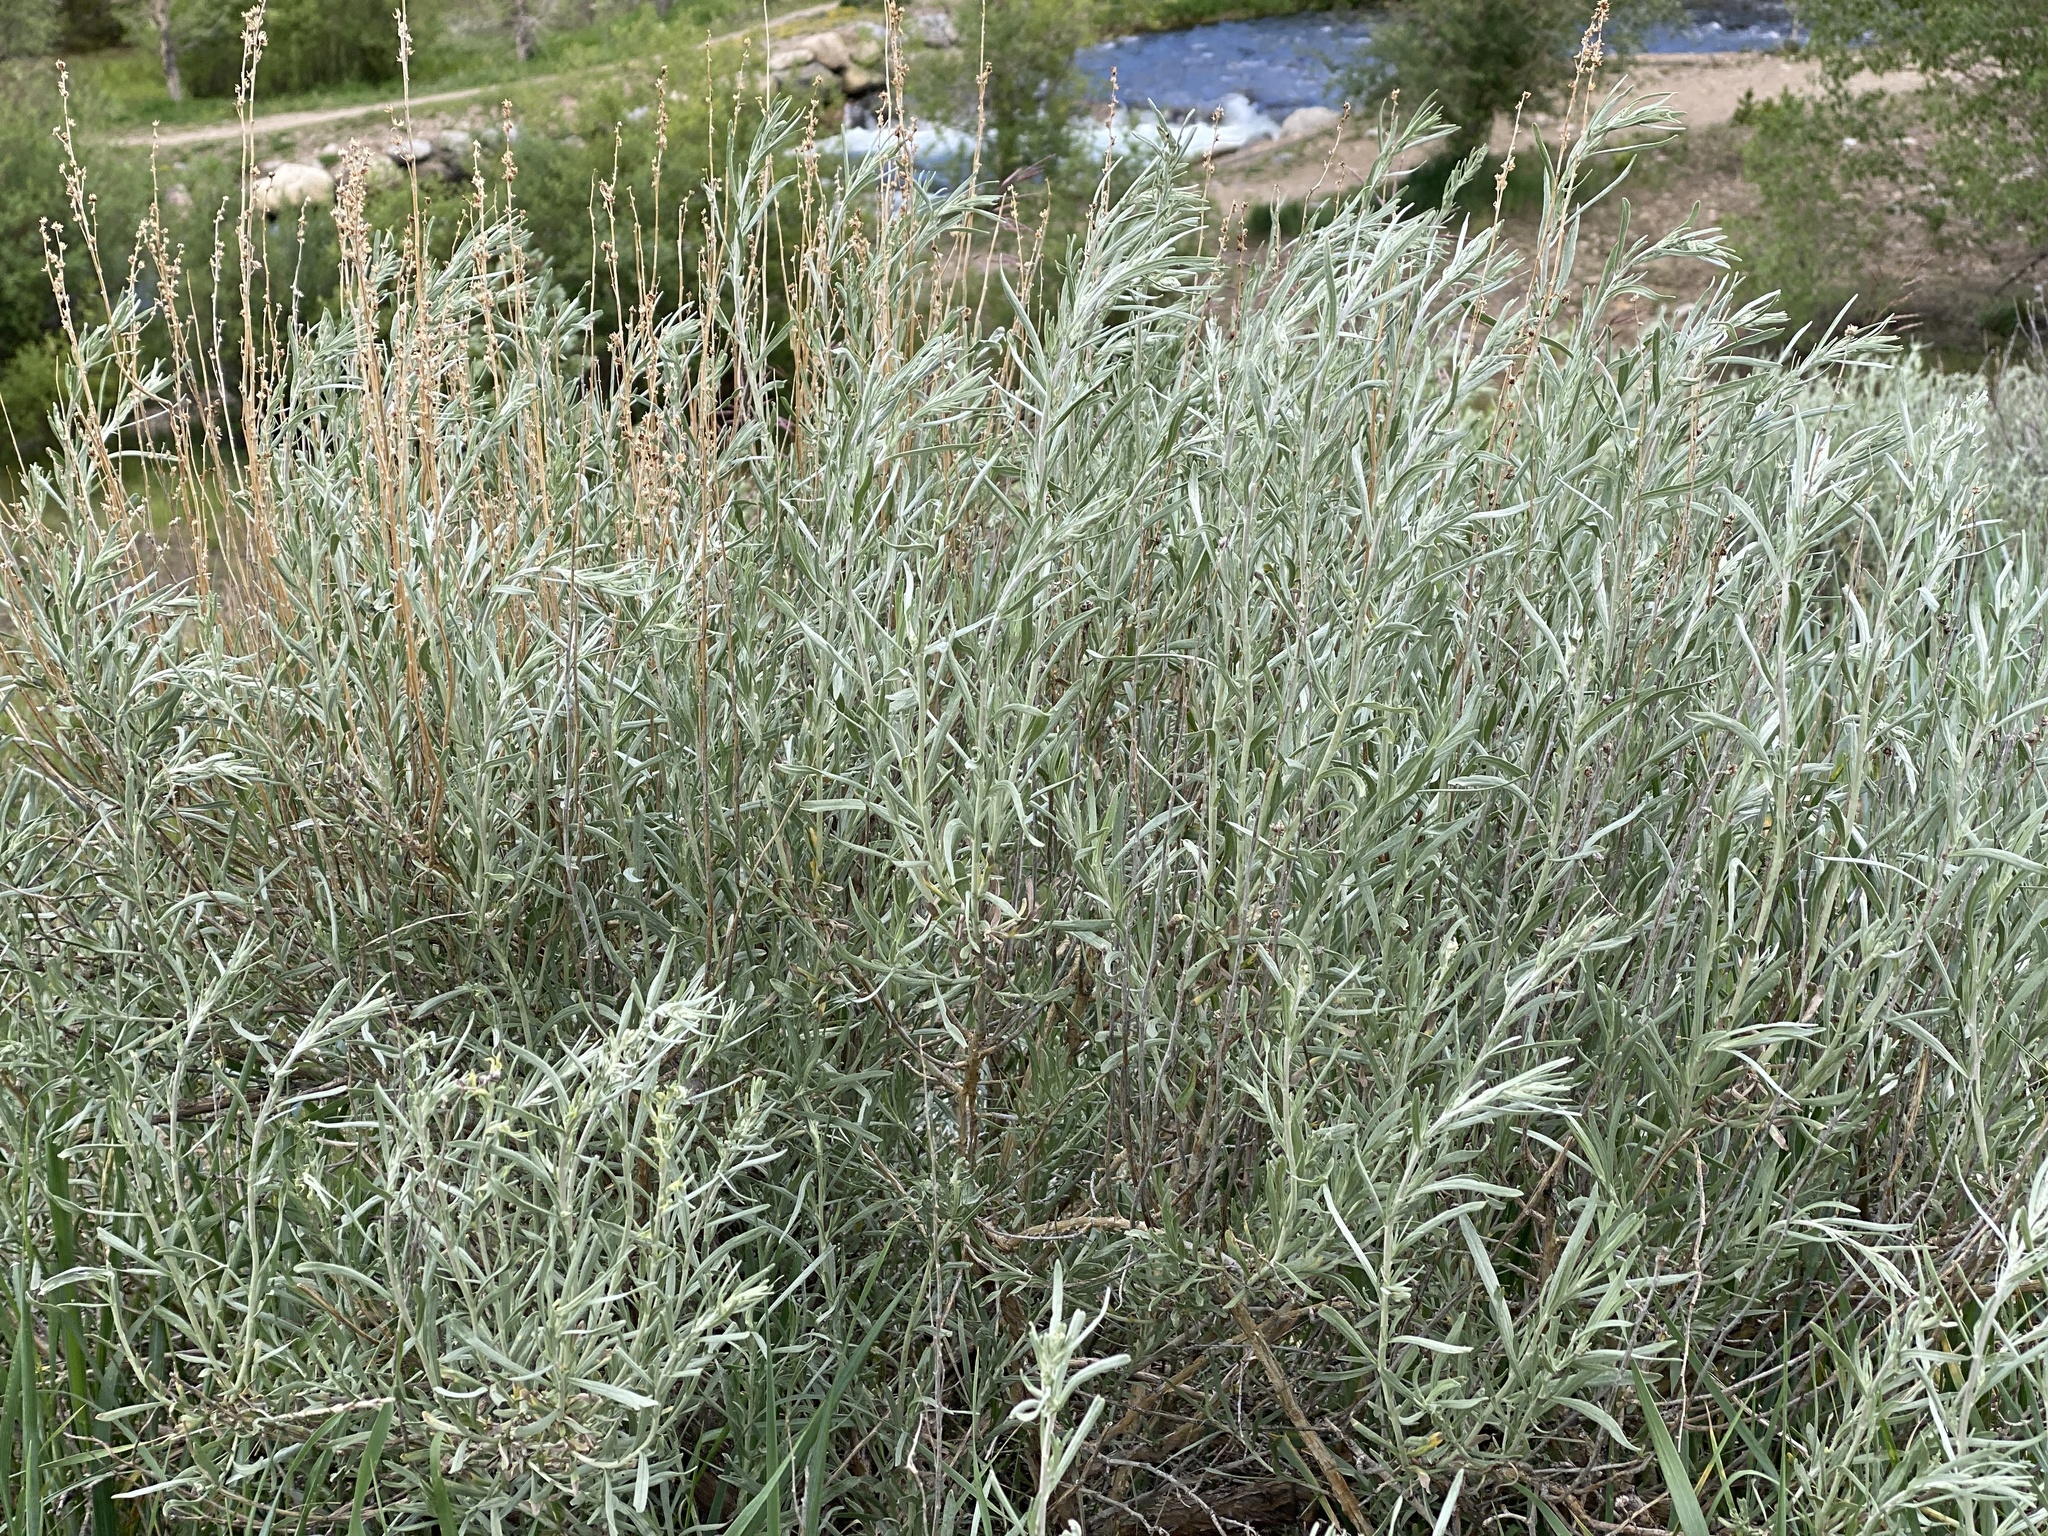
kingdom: Plantae
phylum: Tracheophyta
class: Magnoliopsida
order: Asterales
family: Asteraceae
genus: Artemisia
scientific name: Artemisia cana
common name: Silver sagebrush
